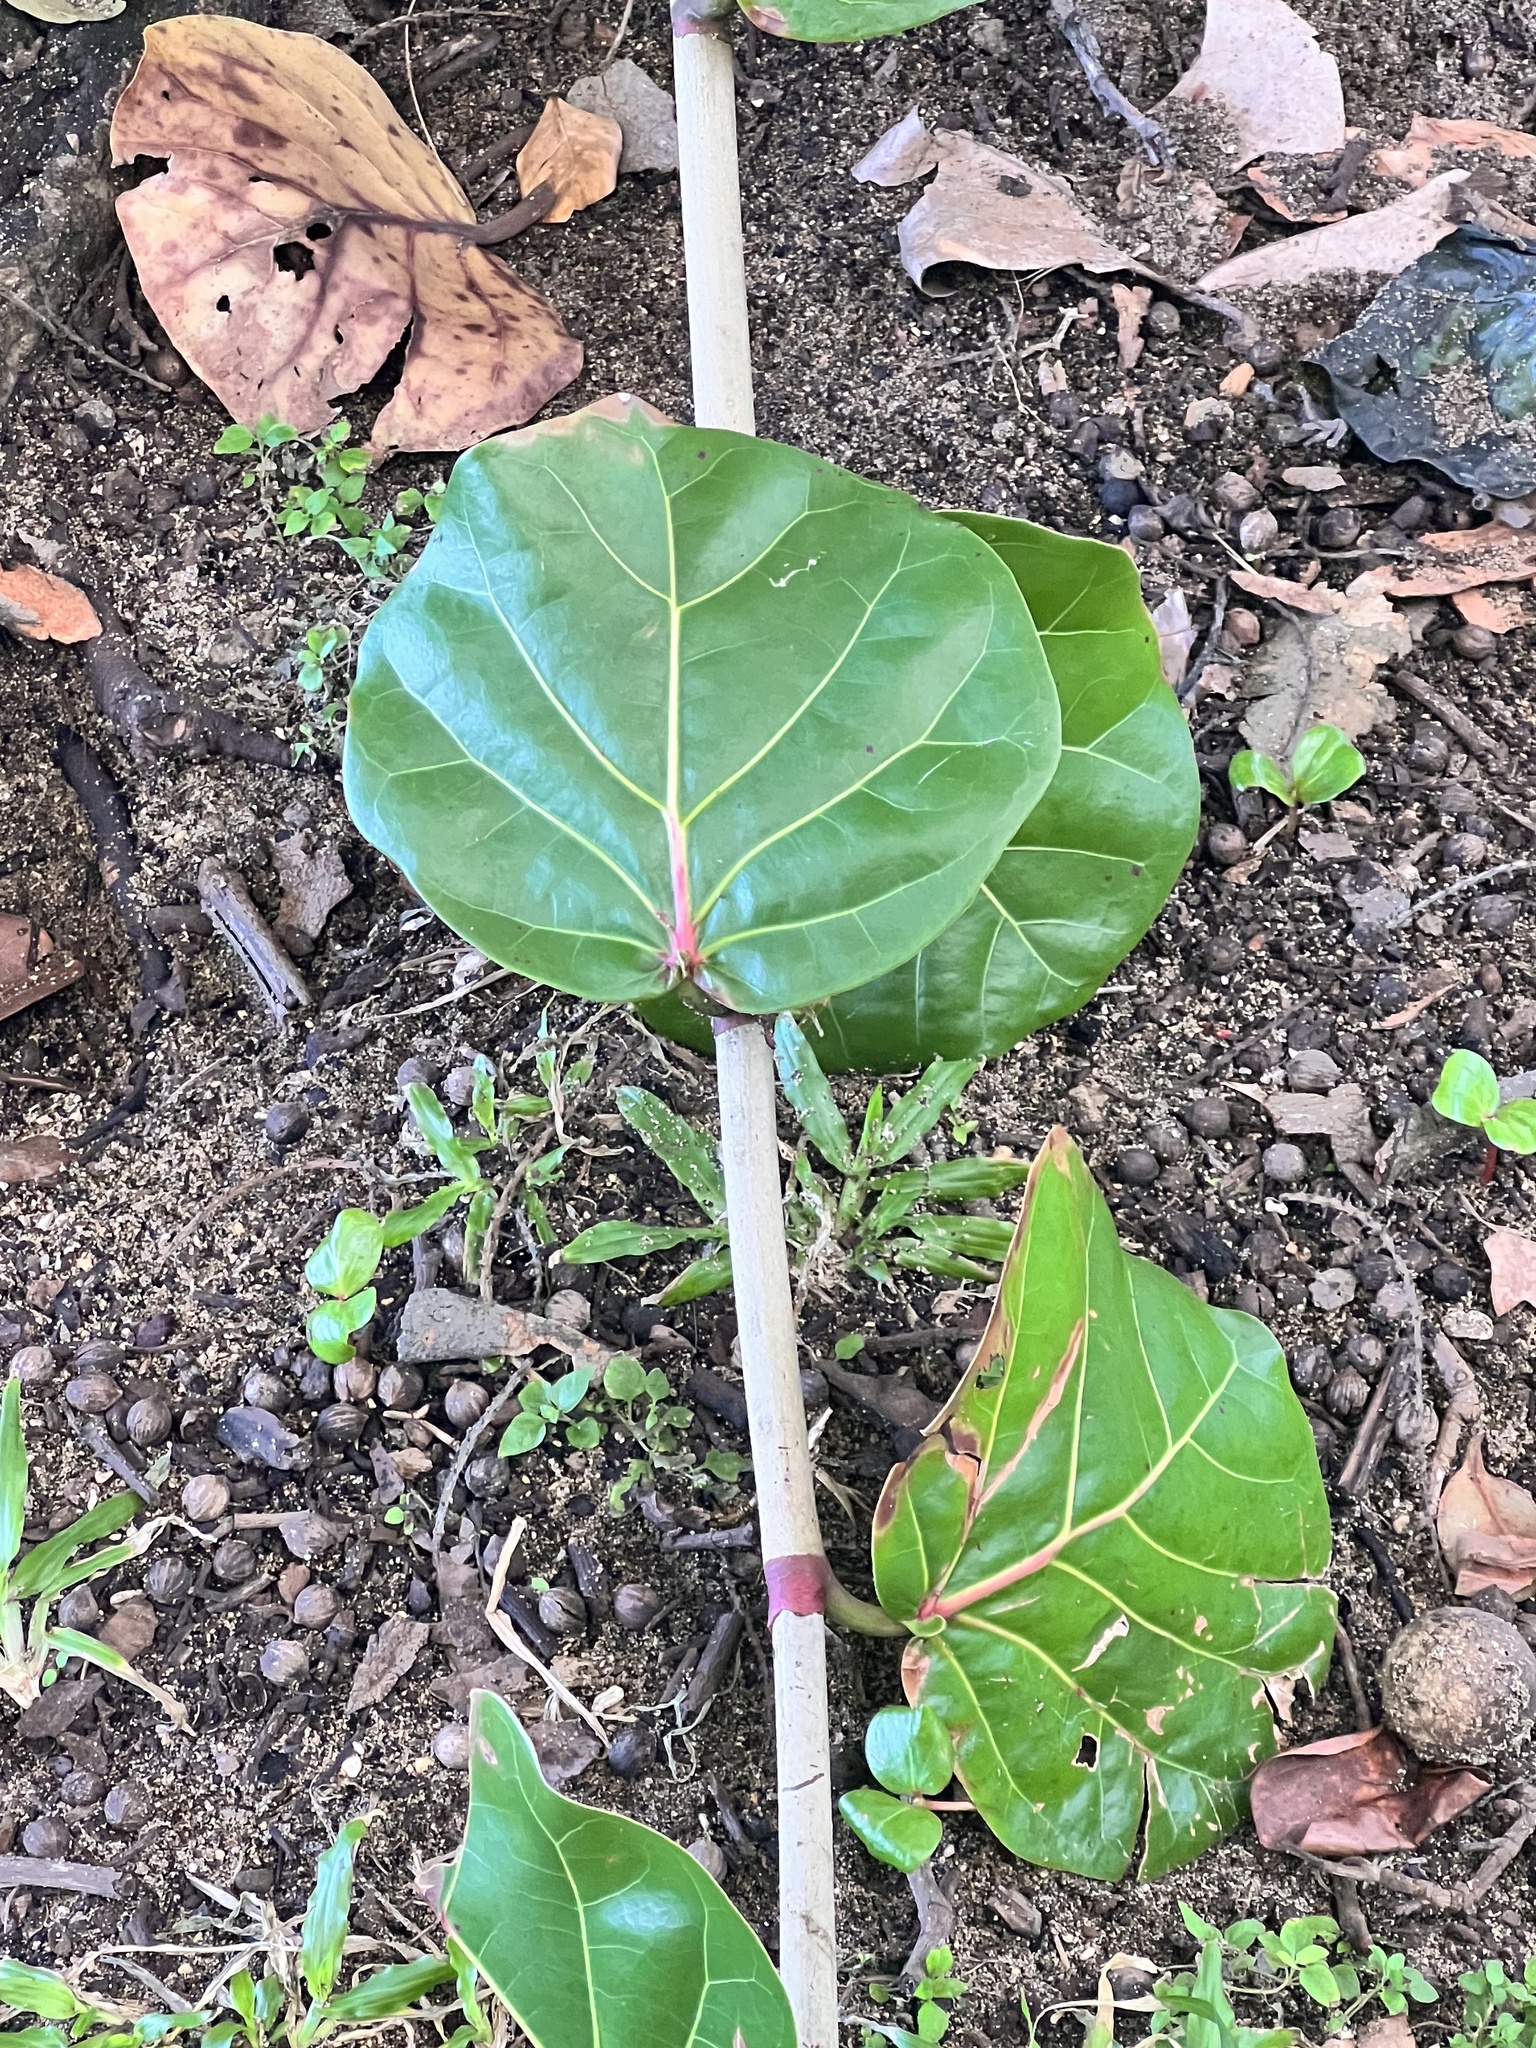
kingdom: Plantae
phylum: Tracheophyta
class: Magnoliopsida
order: Caryophyllales
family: Polygonaceae
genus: Coccoloba
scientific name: Coccoloba uvifera
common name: Seagrape
